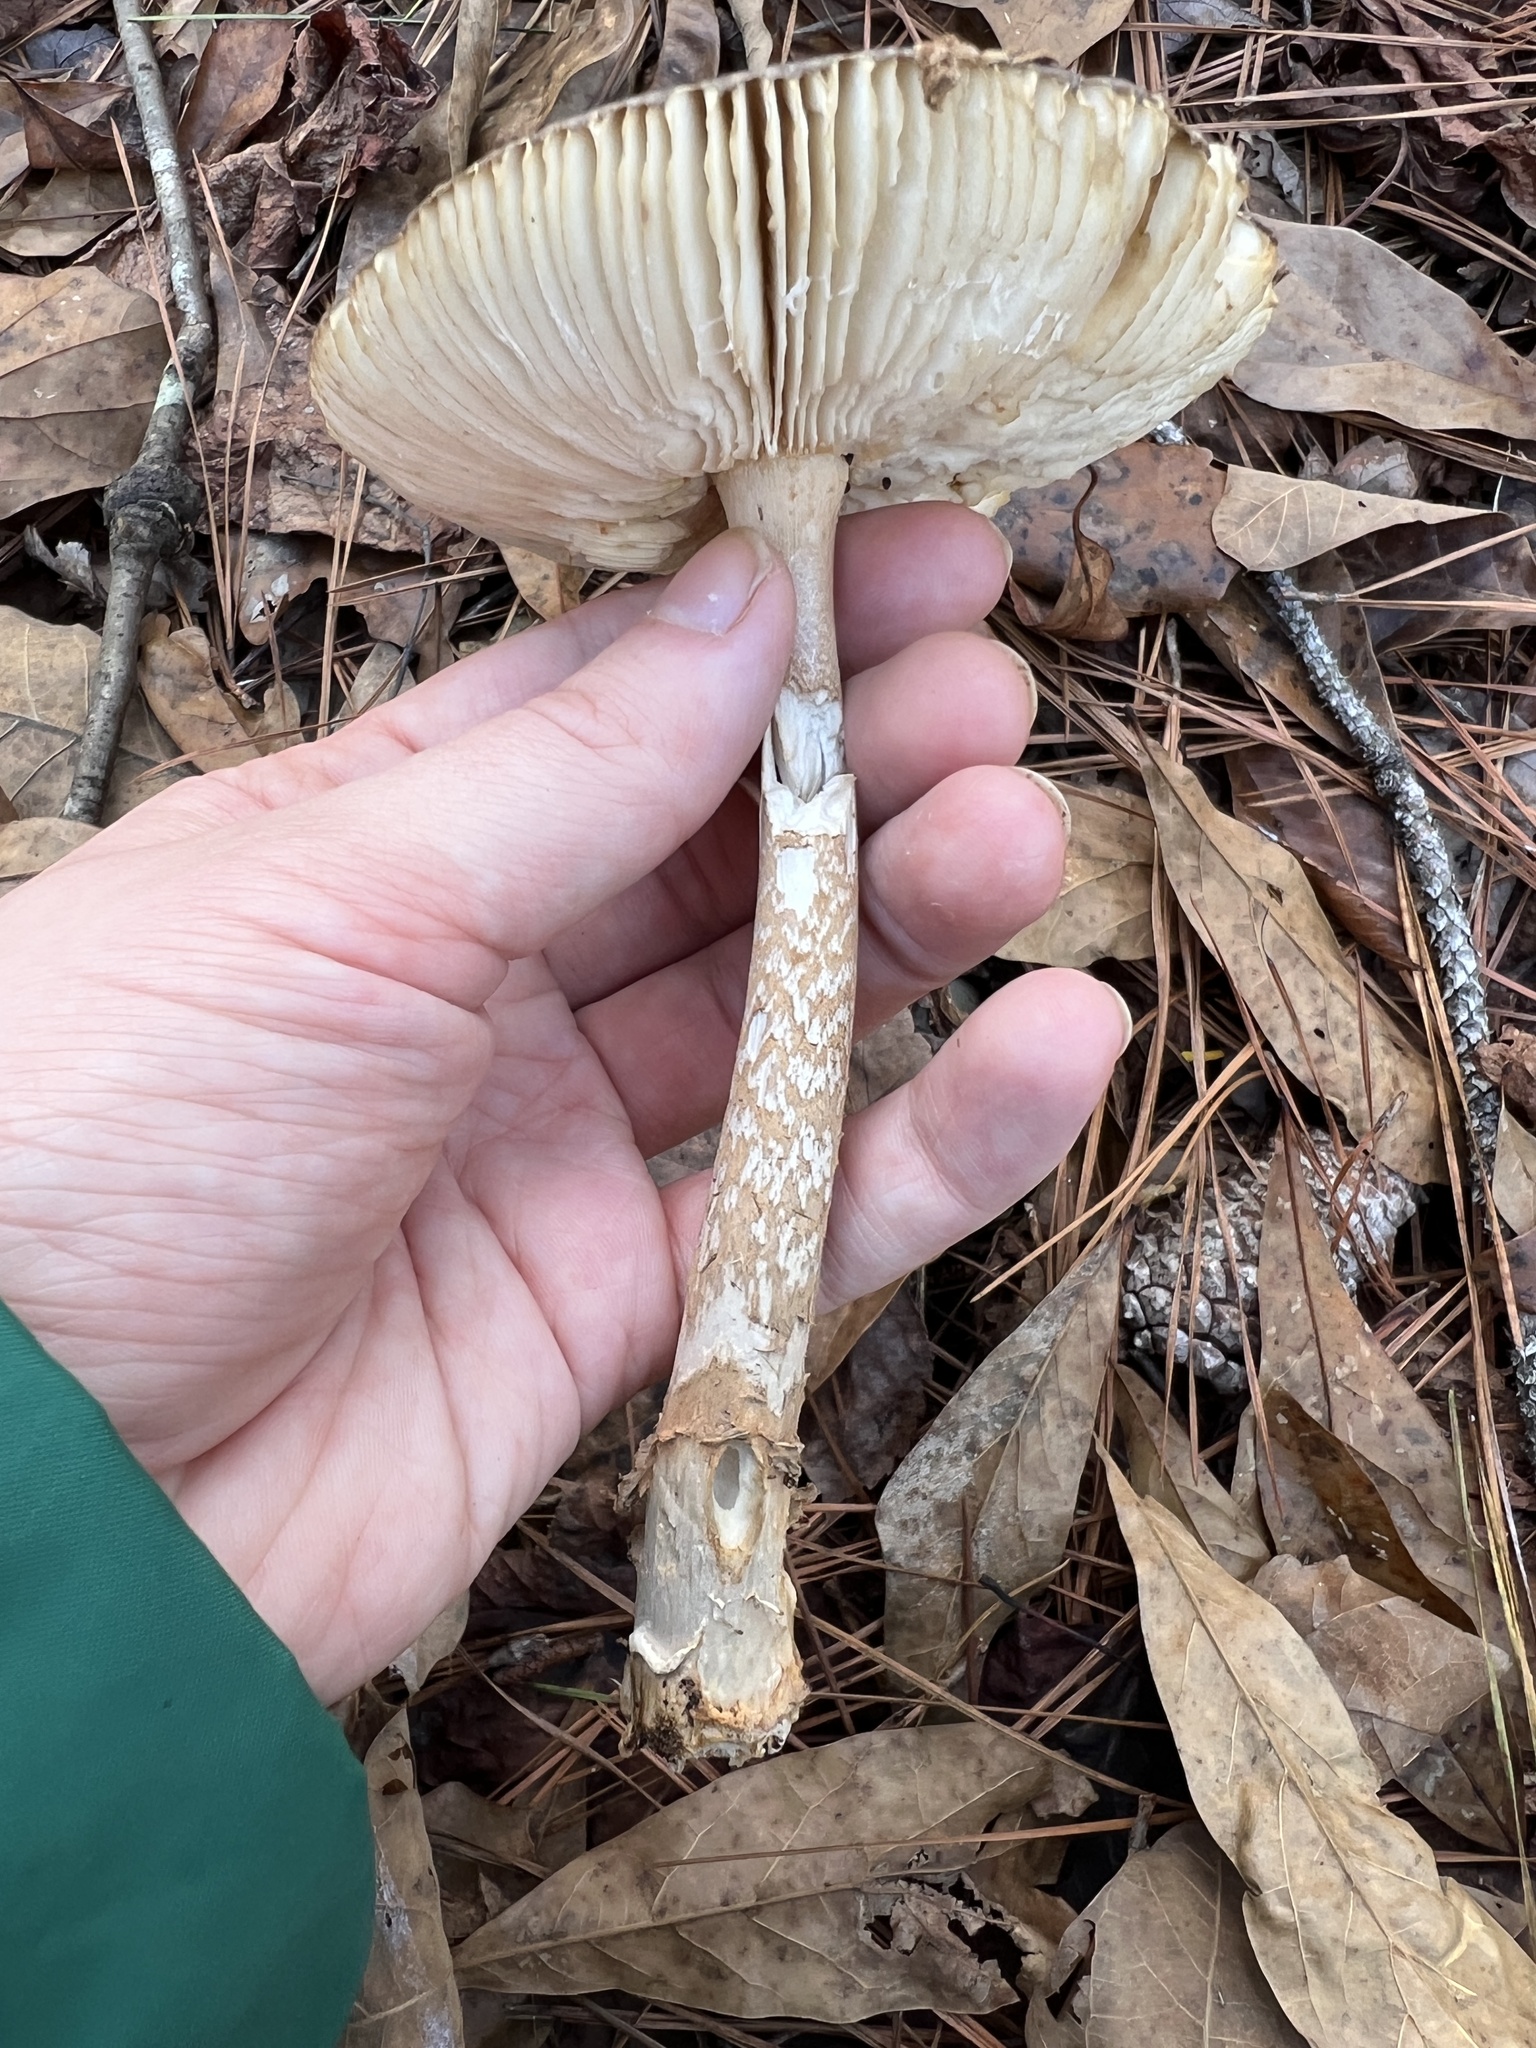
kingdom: Fungi
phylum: Basidiomycota
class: Agaricomycetes
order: Agaricales
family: Amanitaceae
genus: Amanita
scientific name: Amanita rhacopus
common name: Shaggy legged ringless amanita
